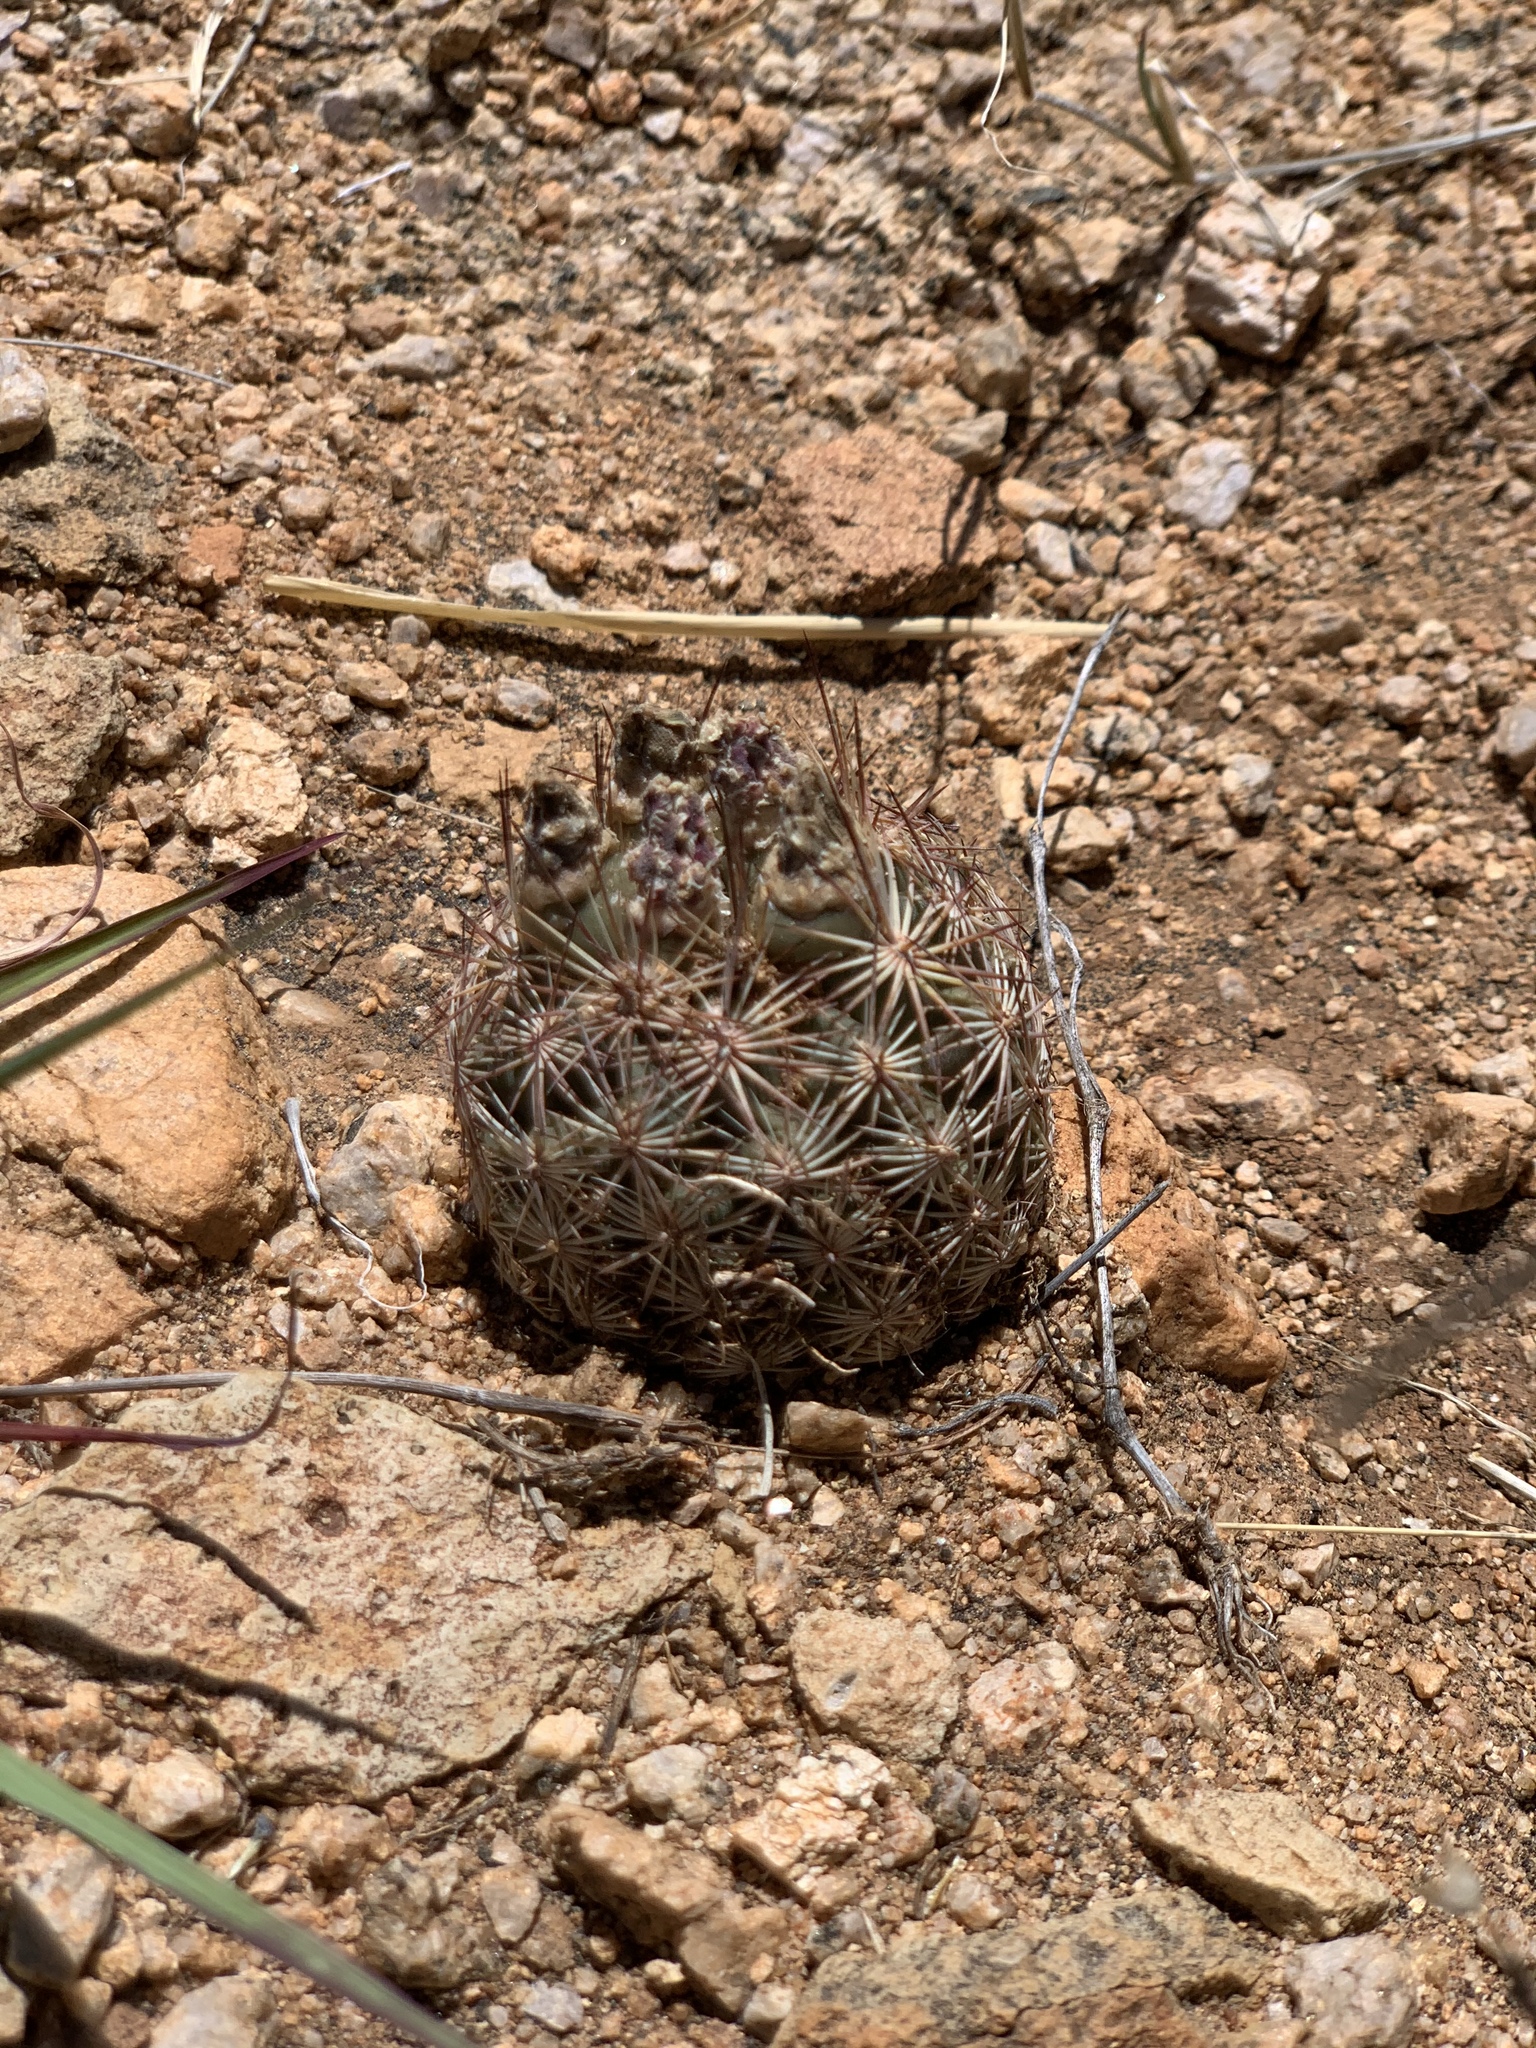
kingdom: Plantae
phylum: Tracheophyta
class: Magnoliopsida
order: Caryophyllales
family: Cactaceae
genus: Sclerocactus
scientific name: Sclerocactus intertextus
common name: White fish-hook cactus
